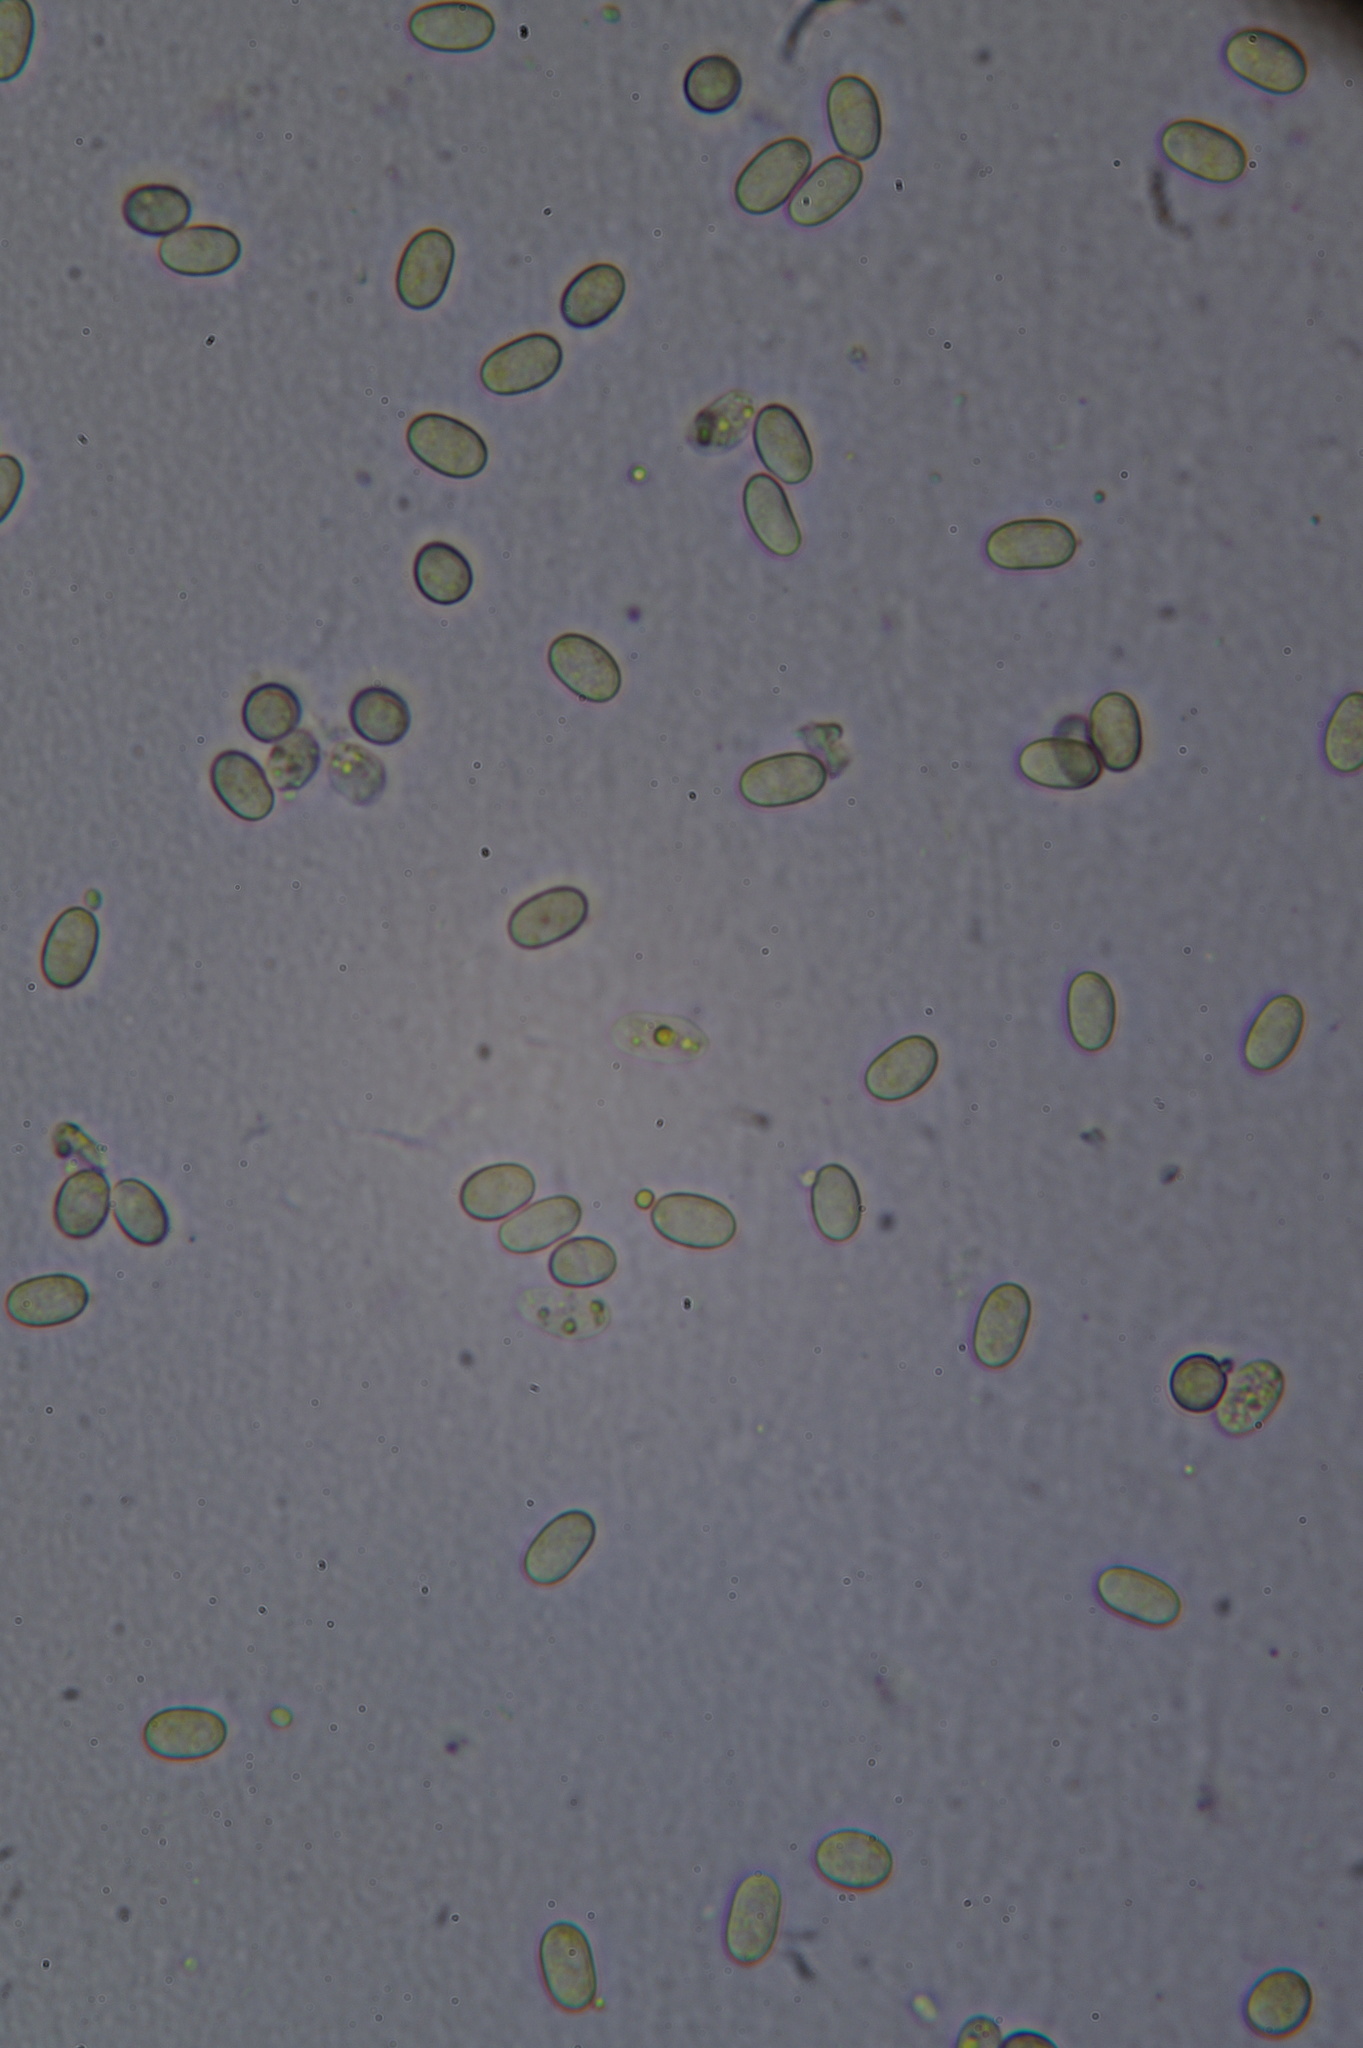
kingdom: Fungi
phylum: Mucoromycota
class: Mucoromycetes
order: Mucorales
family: Pilobolaceae
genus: Pilobolus
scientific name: Pilobolus crystallinus
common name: Dung cannon
